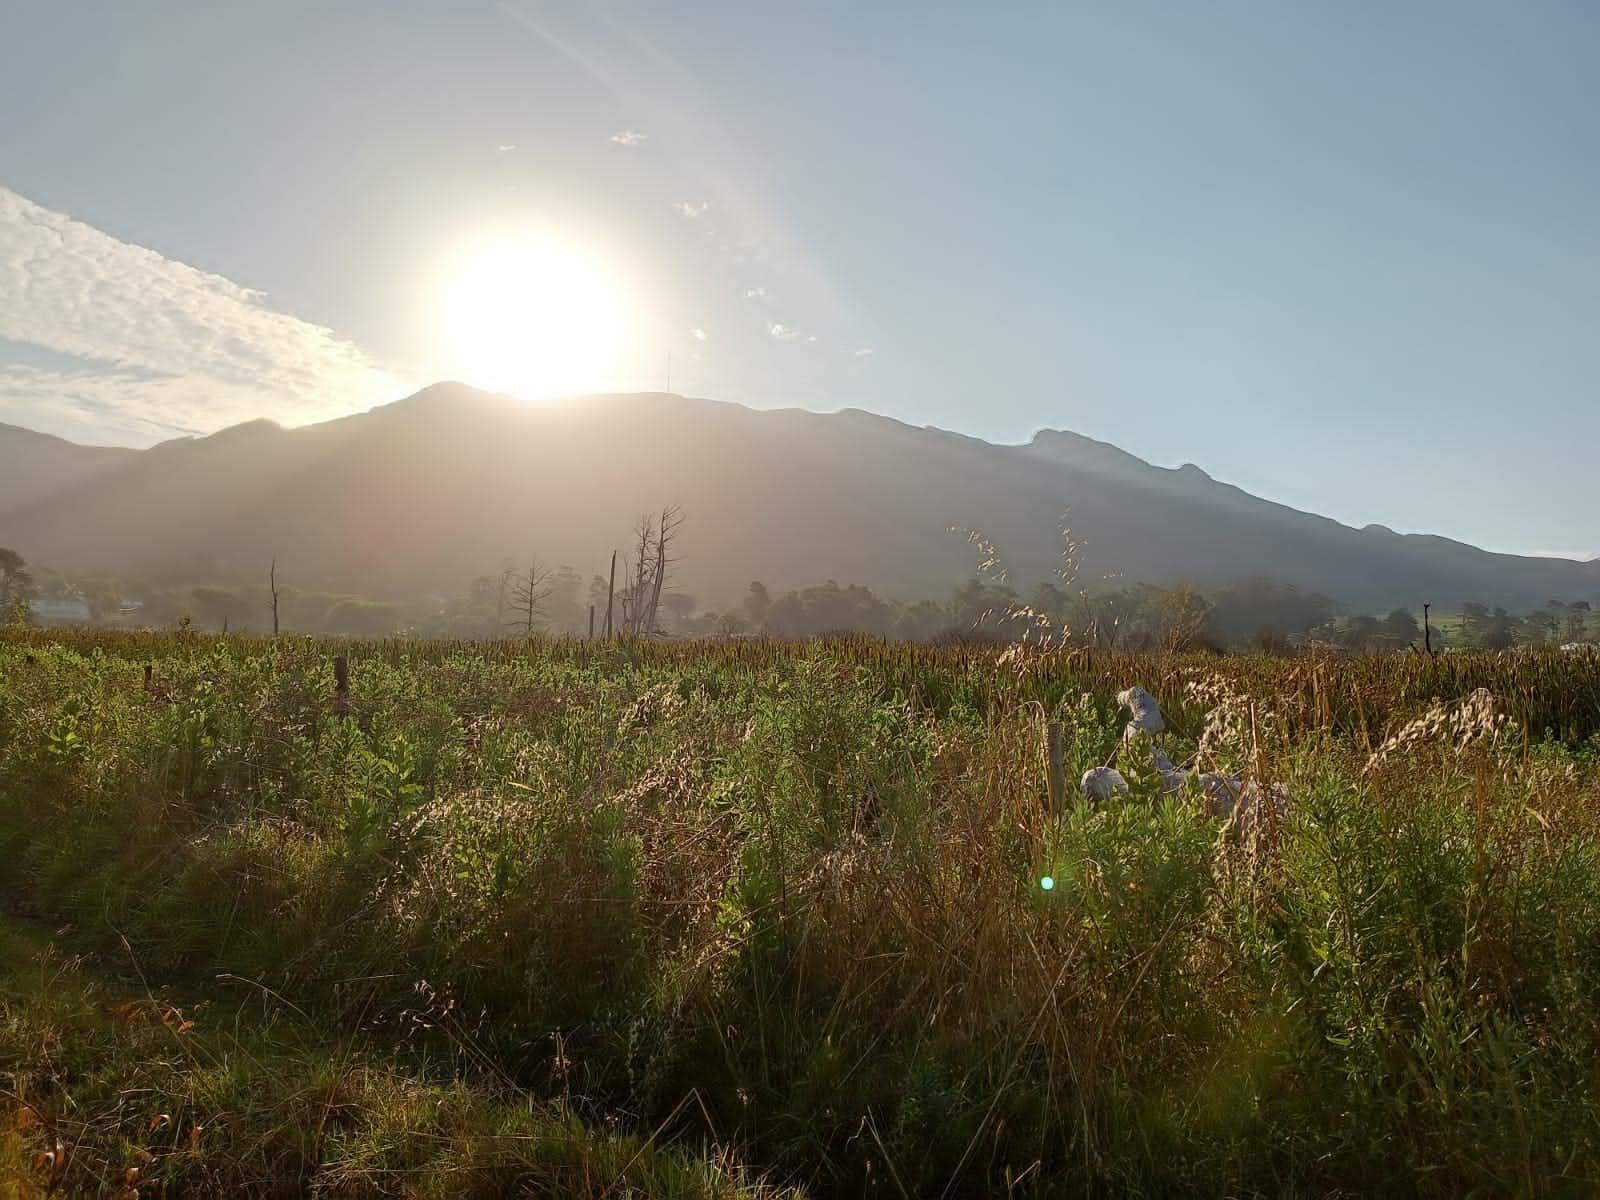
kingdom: Plantae
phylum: Tracheophyta
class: Liliopsida
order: Poales
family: Poaceae
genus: Cenchrus
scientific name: Cenchrus caudatus
